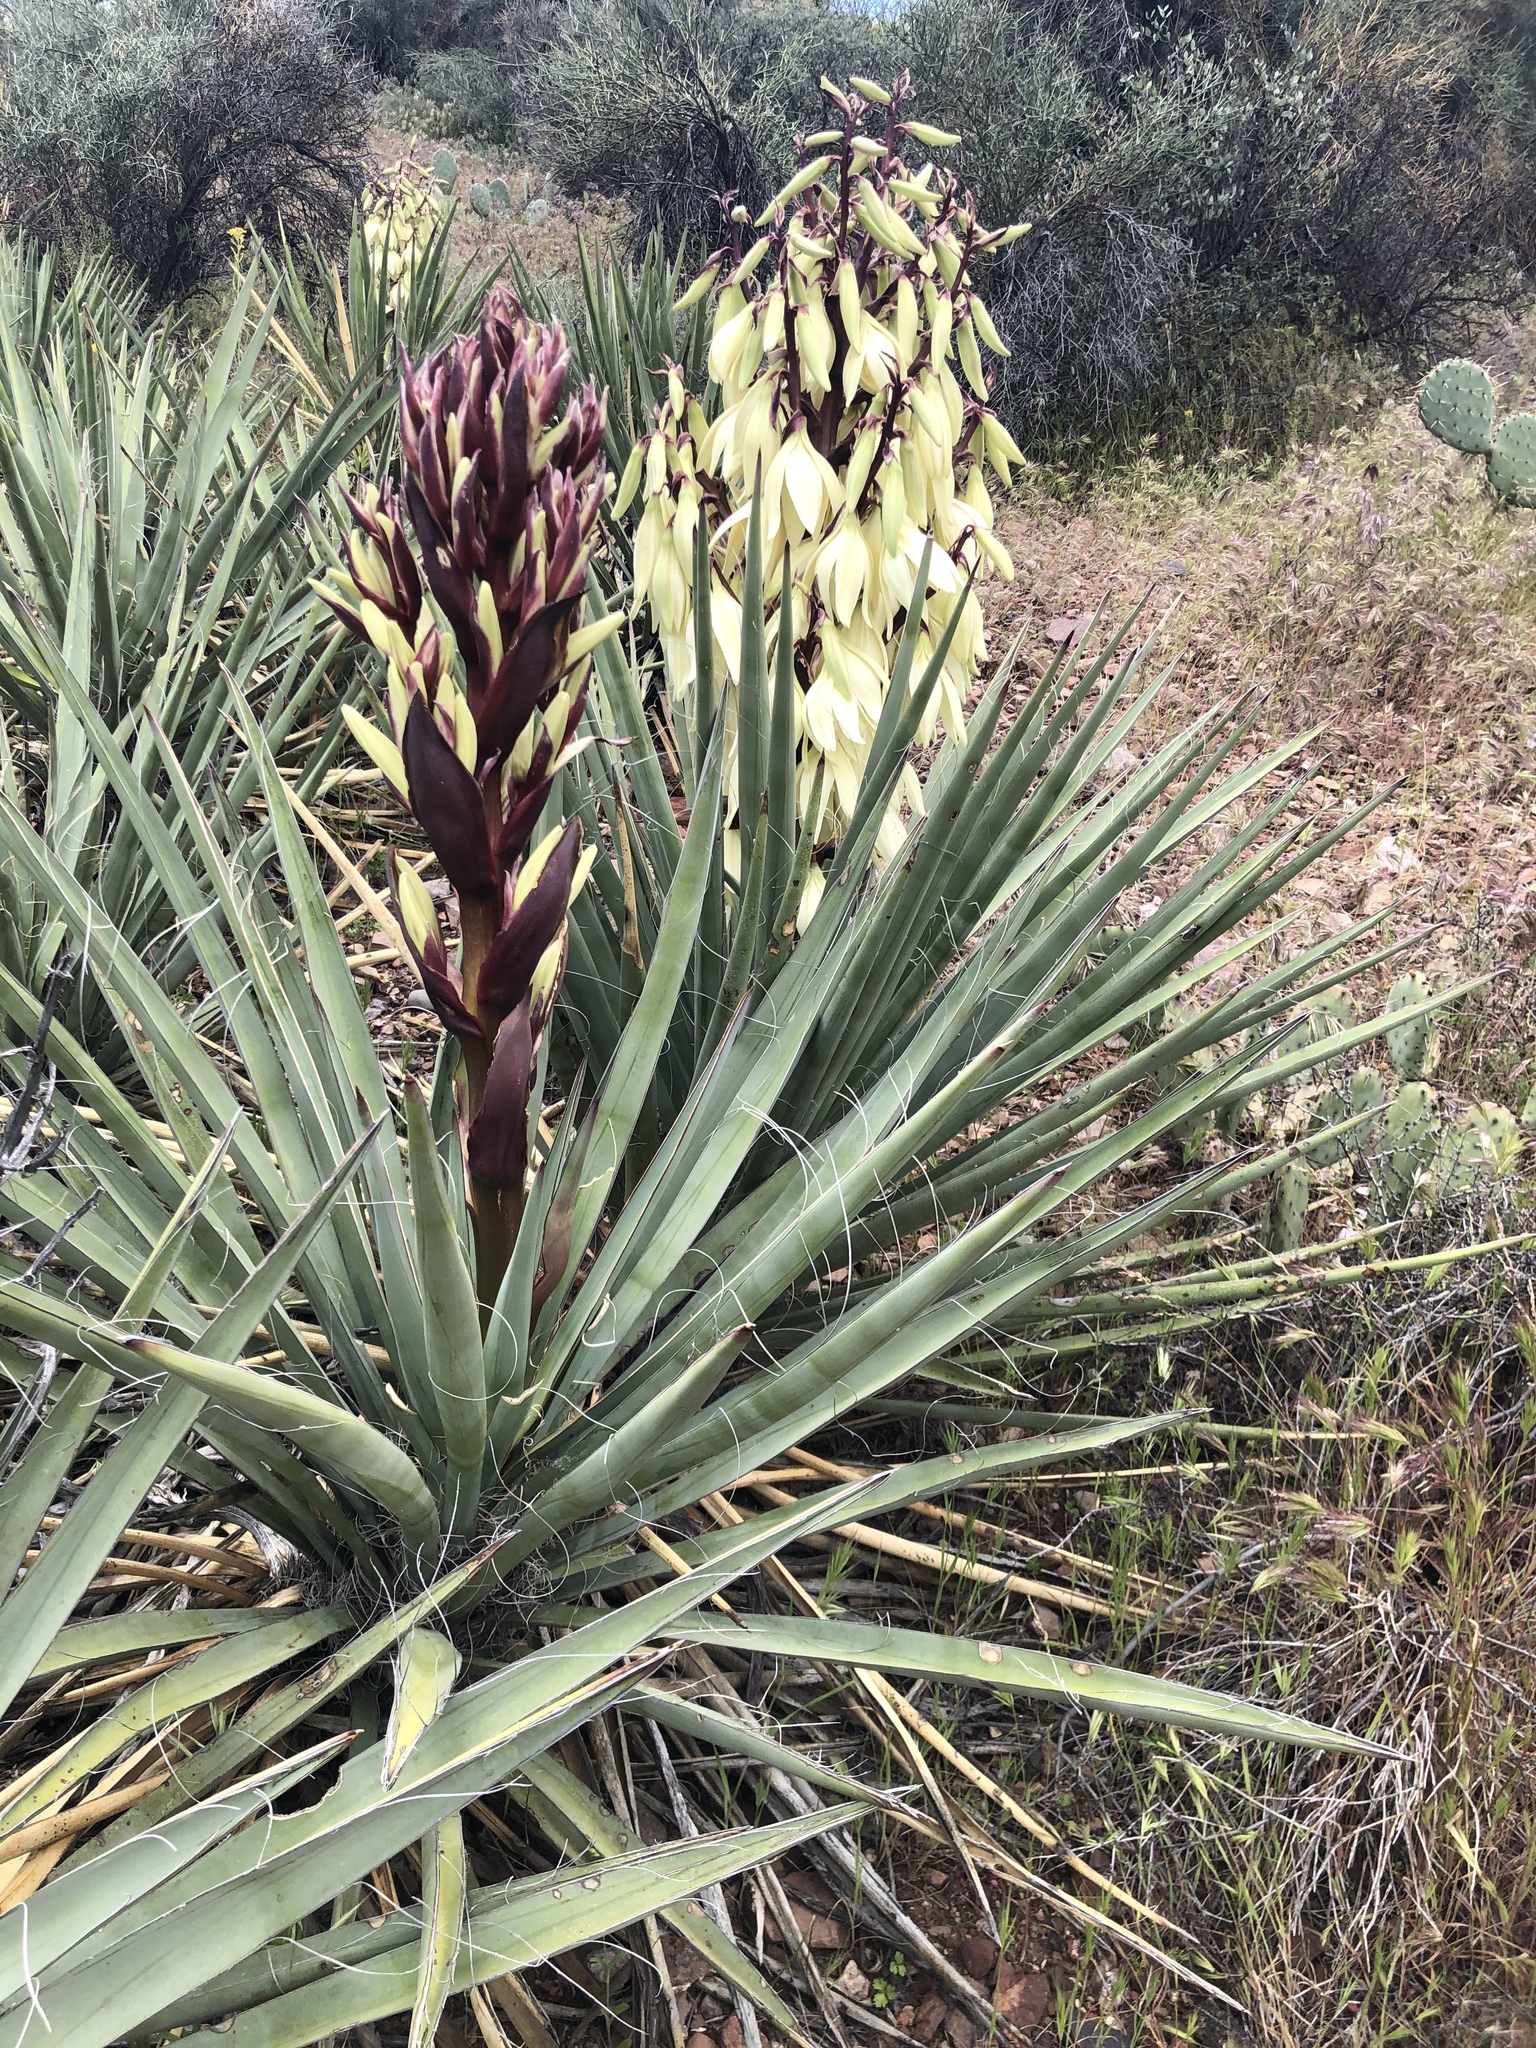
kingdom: Plantae
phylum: Tracheophyta
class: Liliopsida
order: Asparagales
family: Asparagaceae
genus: Yucca
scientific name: Yucca baccata
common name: Banana yucca
